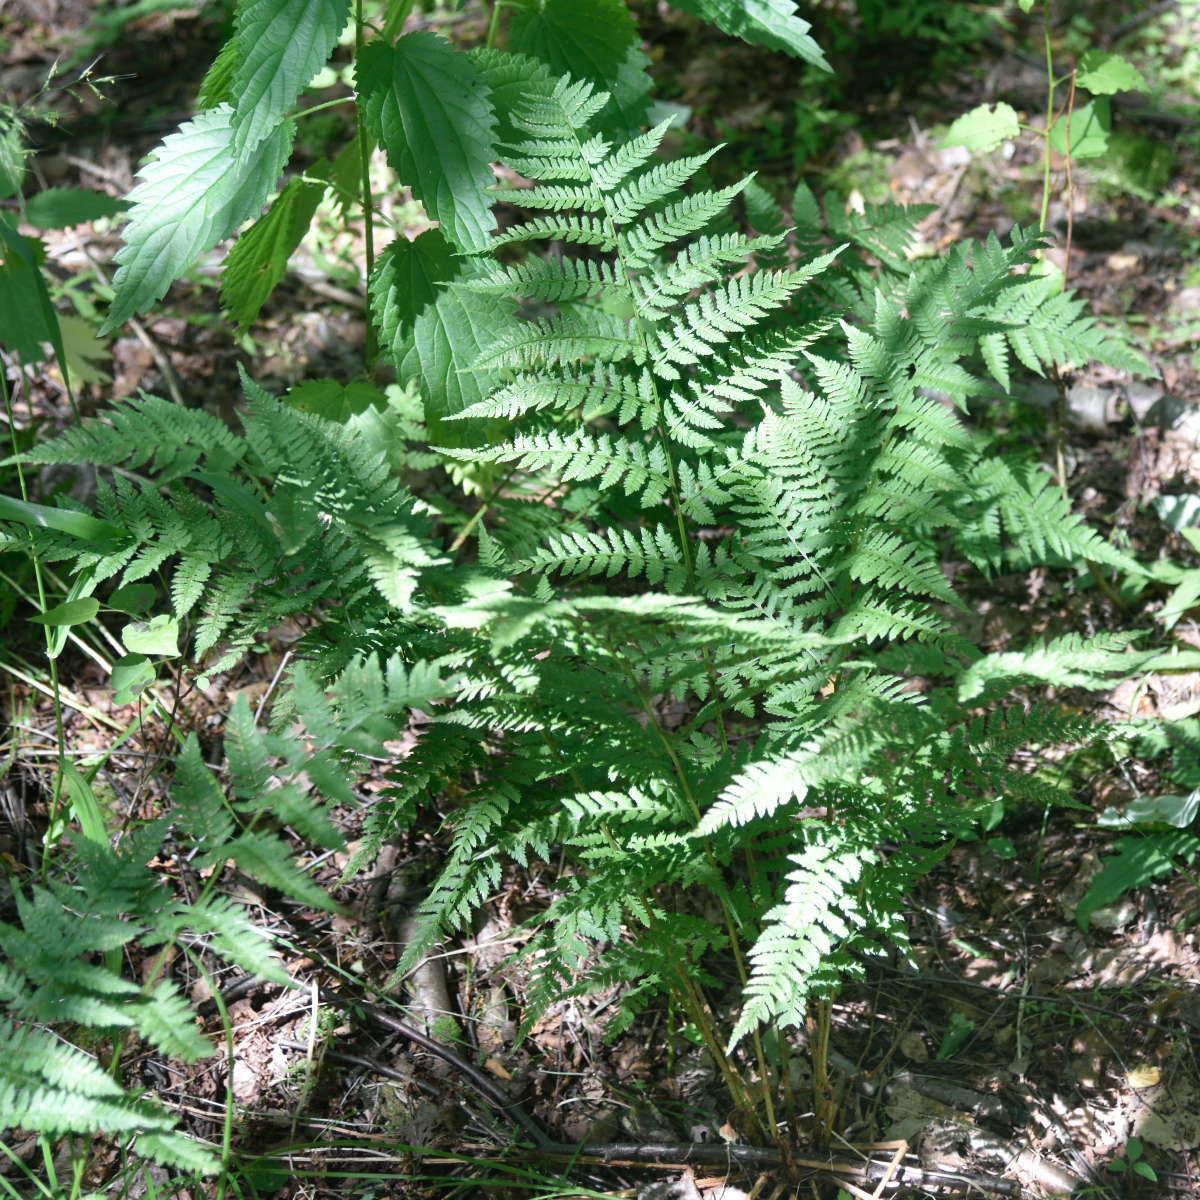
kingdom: Plantae
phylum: Tracheophyta
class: Polypodiopsida
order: Polypodiales
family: Athyriaceae
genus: Athyrium
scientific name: Athyrium filix-femina
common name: Lady fern
